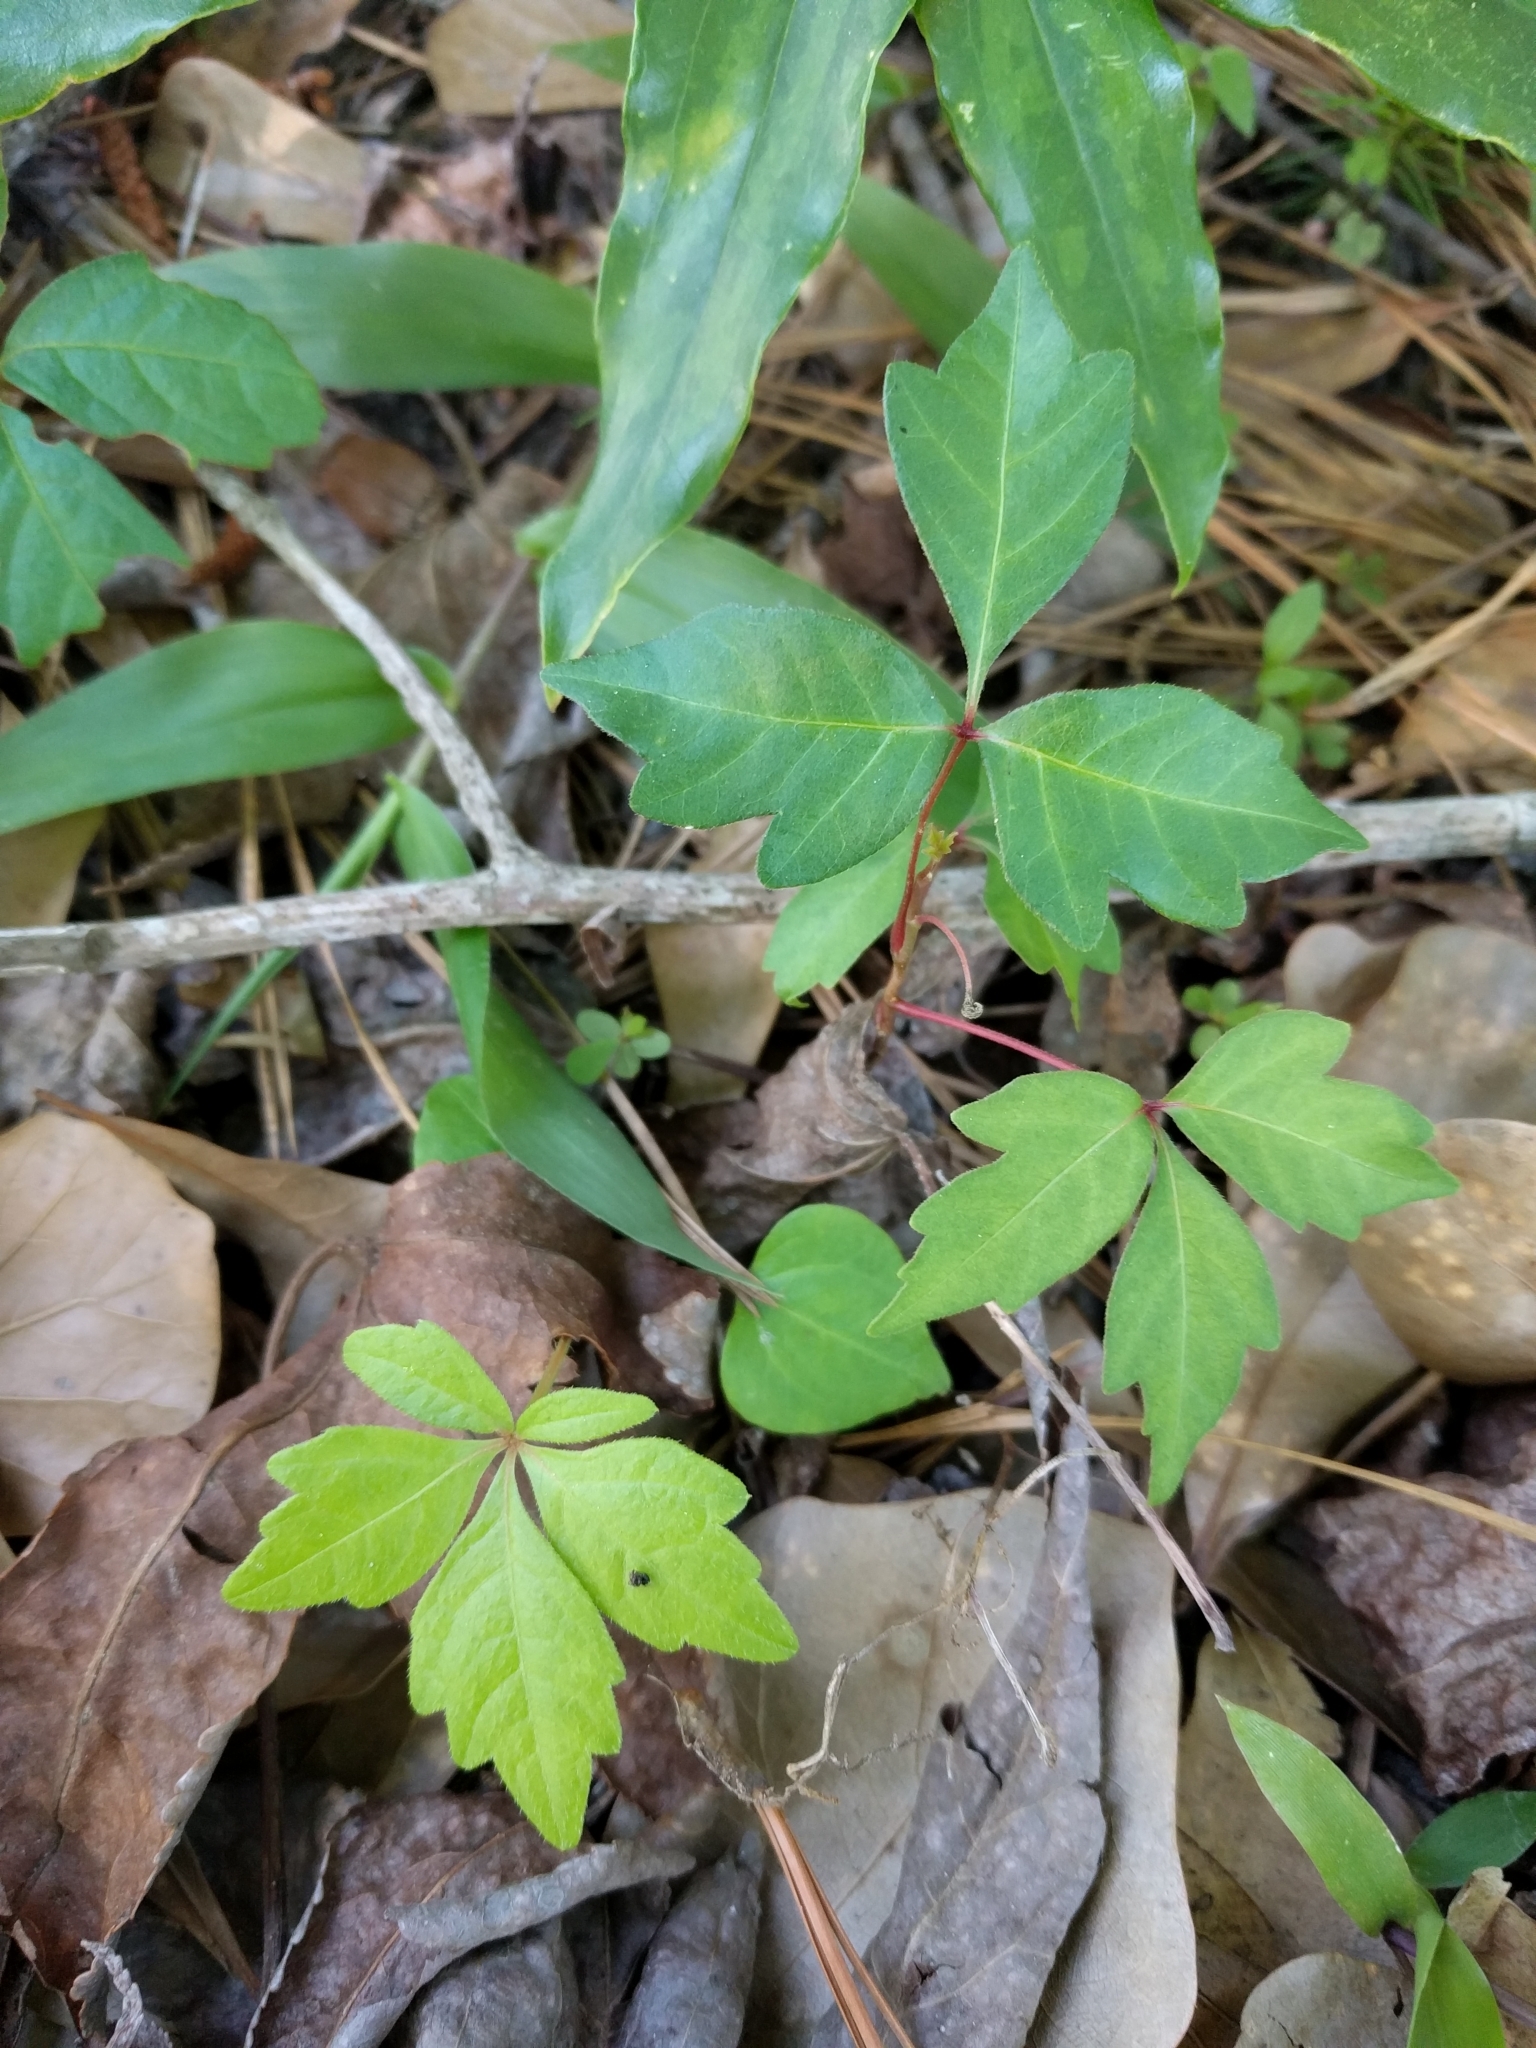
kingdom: Plantae
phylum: Tracheophyta
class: Magnoliopsida
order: Sapindales
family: Anacardiaceae
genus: Toxicodendron
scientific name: Toxicodendron radicans
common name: Poison ivy
